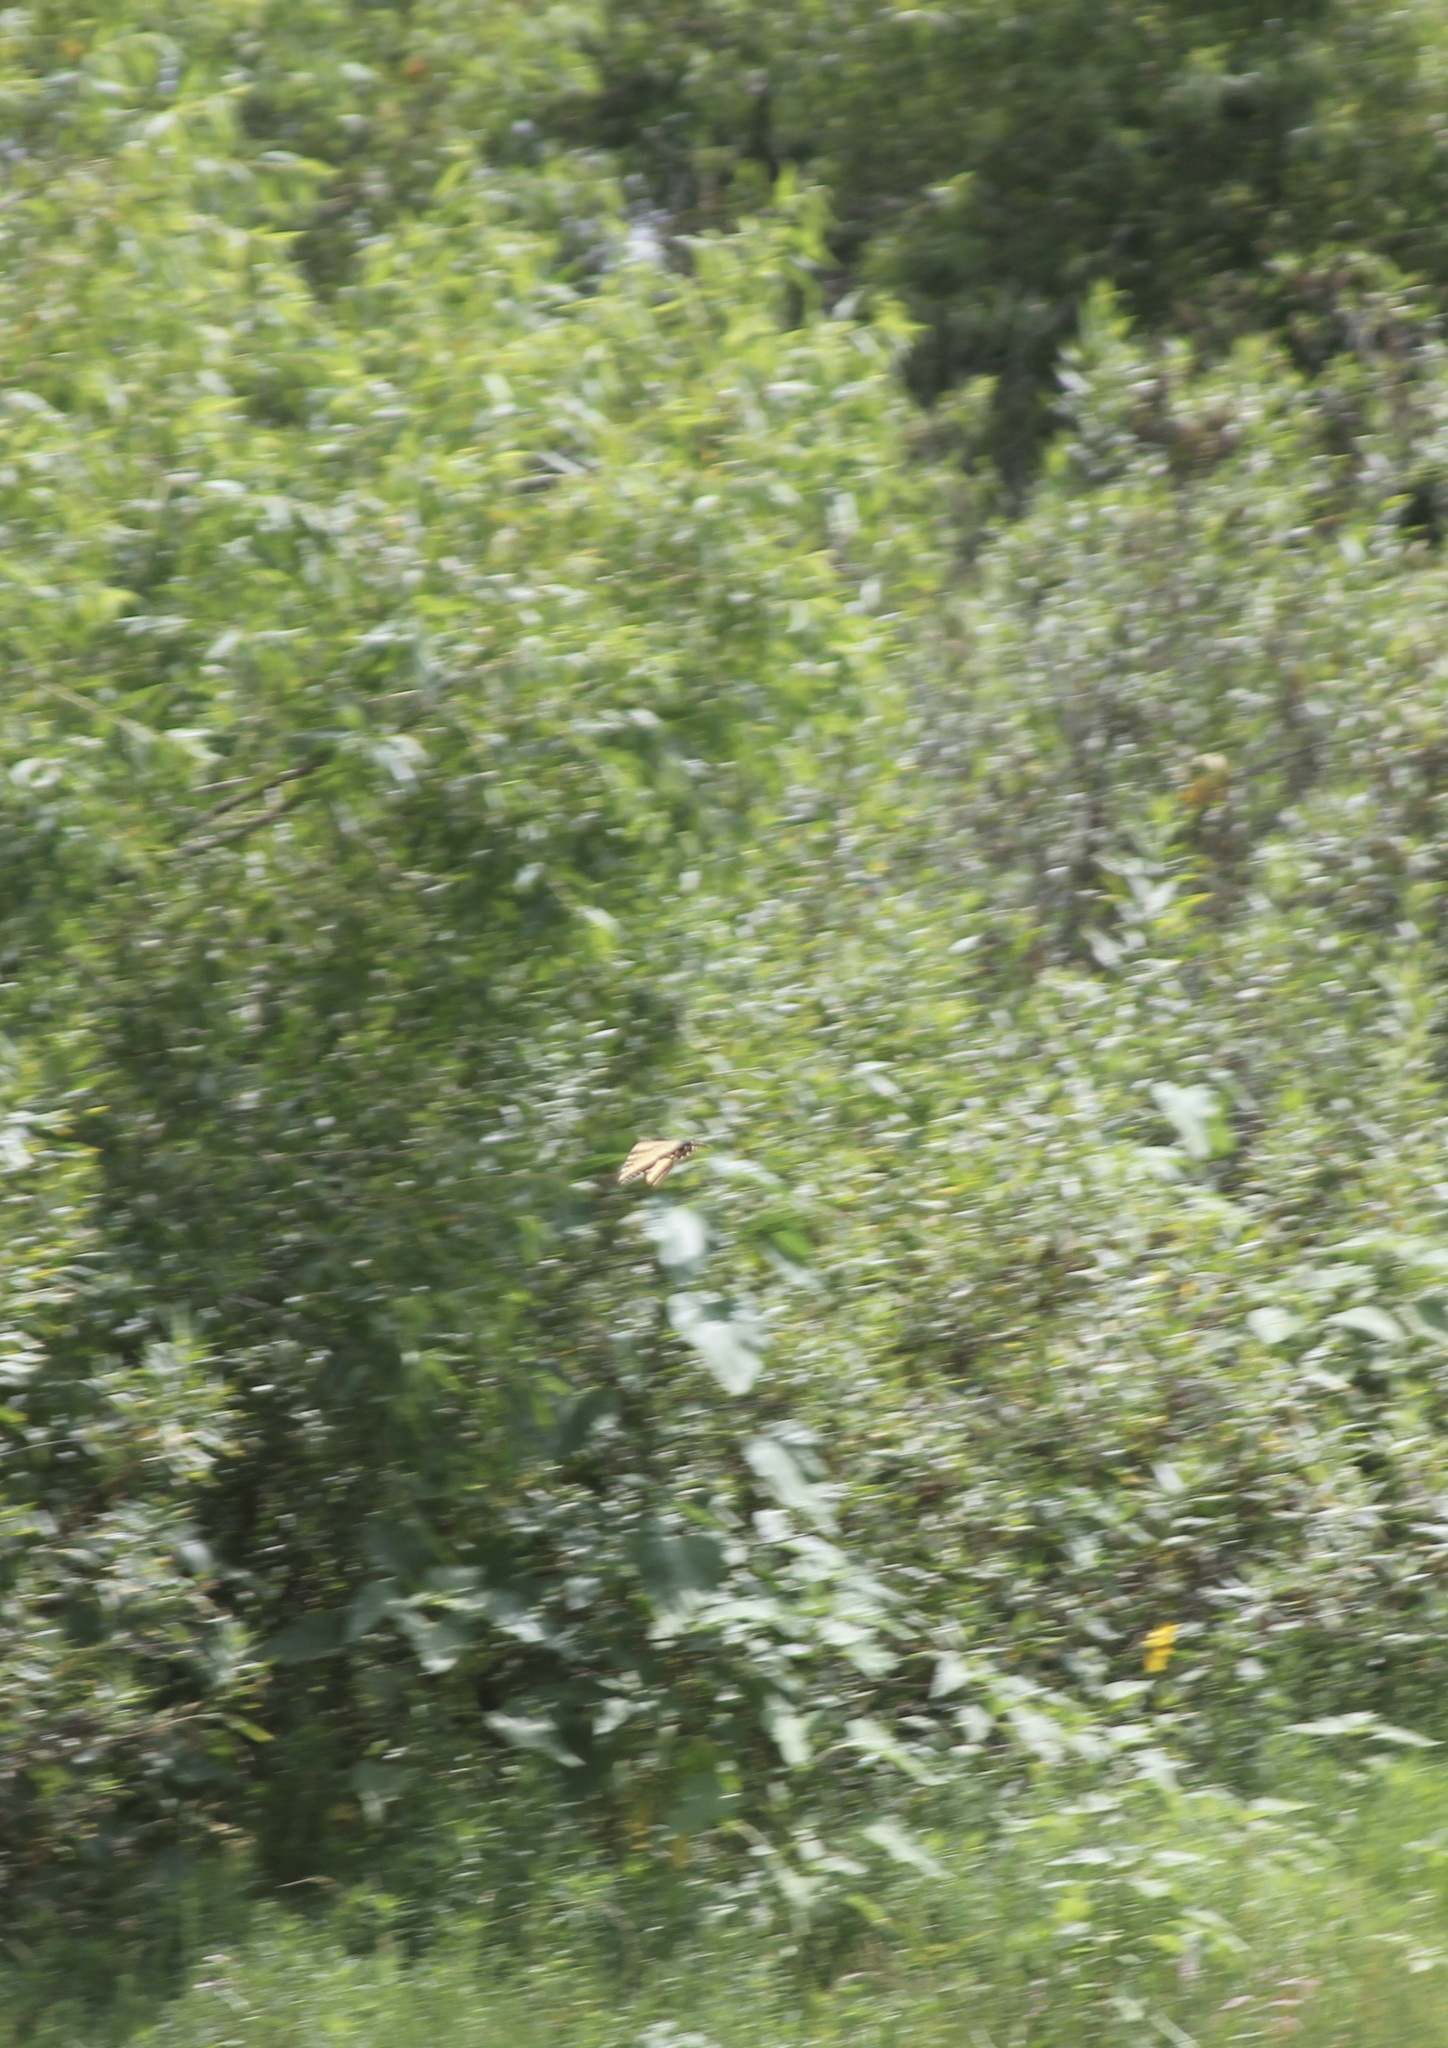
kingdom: Animalia
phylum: Arthropoda
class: Insecta
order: Lepidoptera
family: Papilionidae
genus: Papilio
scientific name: Papilio rutulus
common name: Western tiger swallowtail
